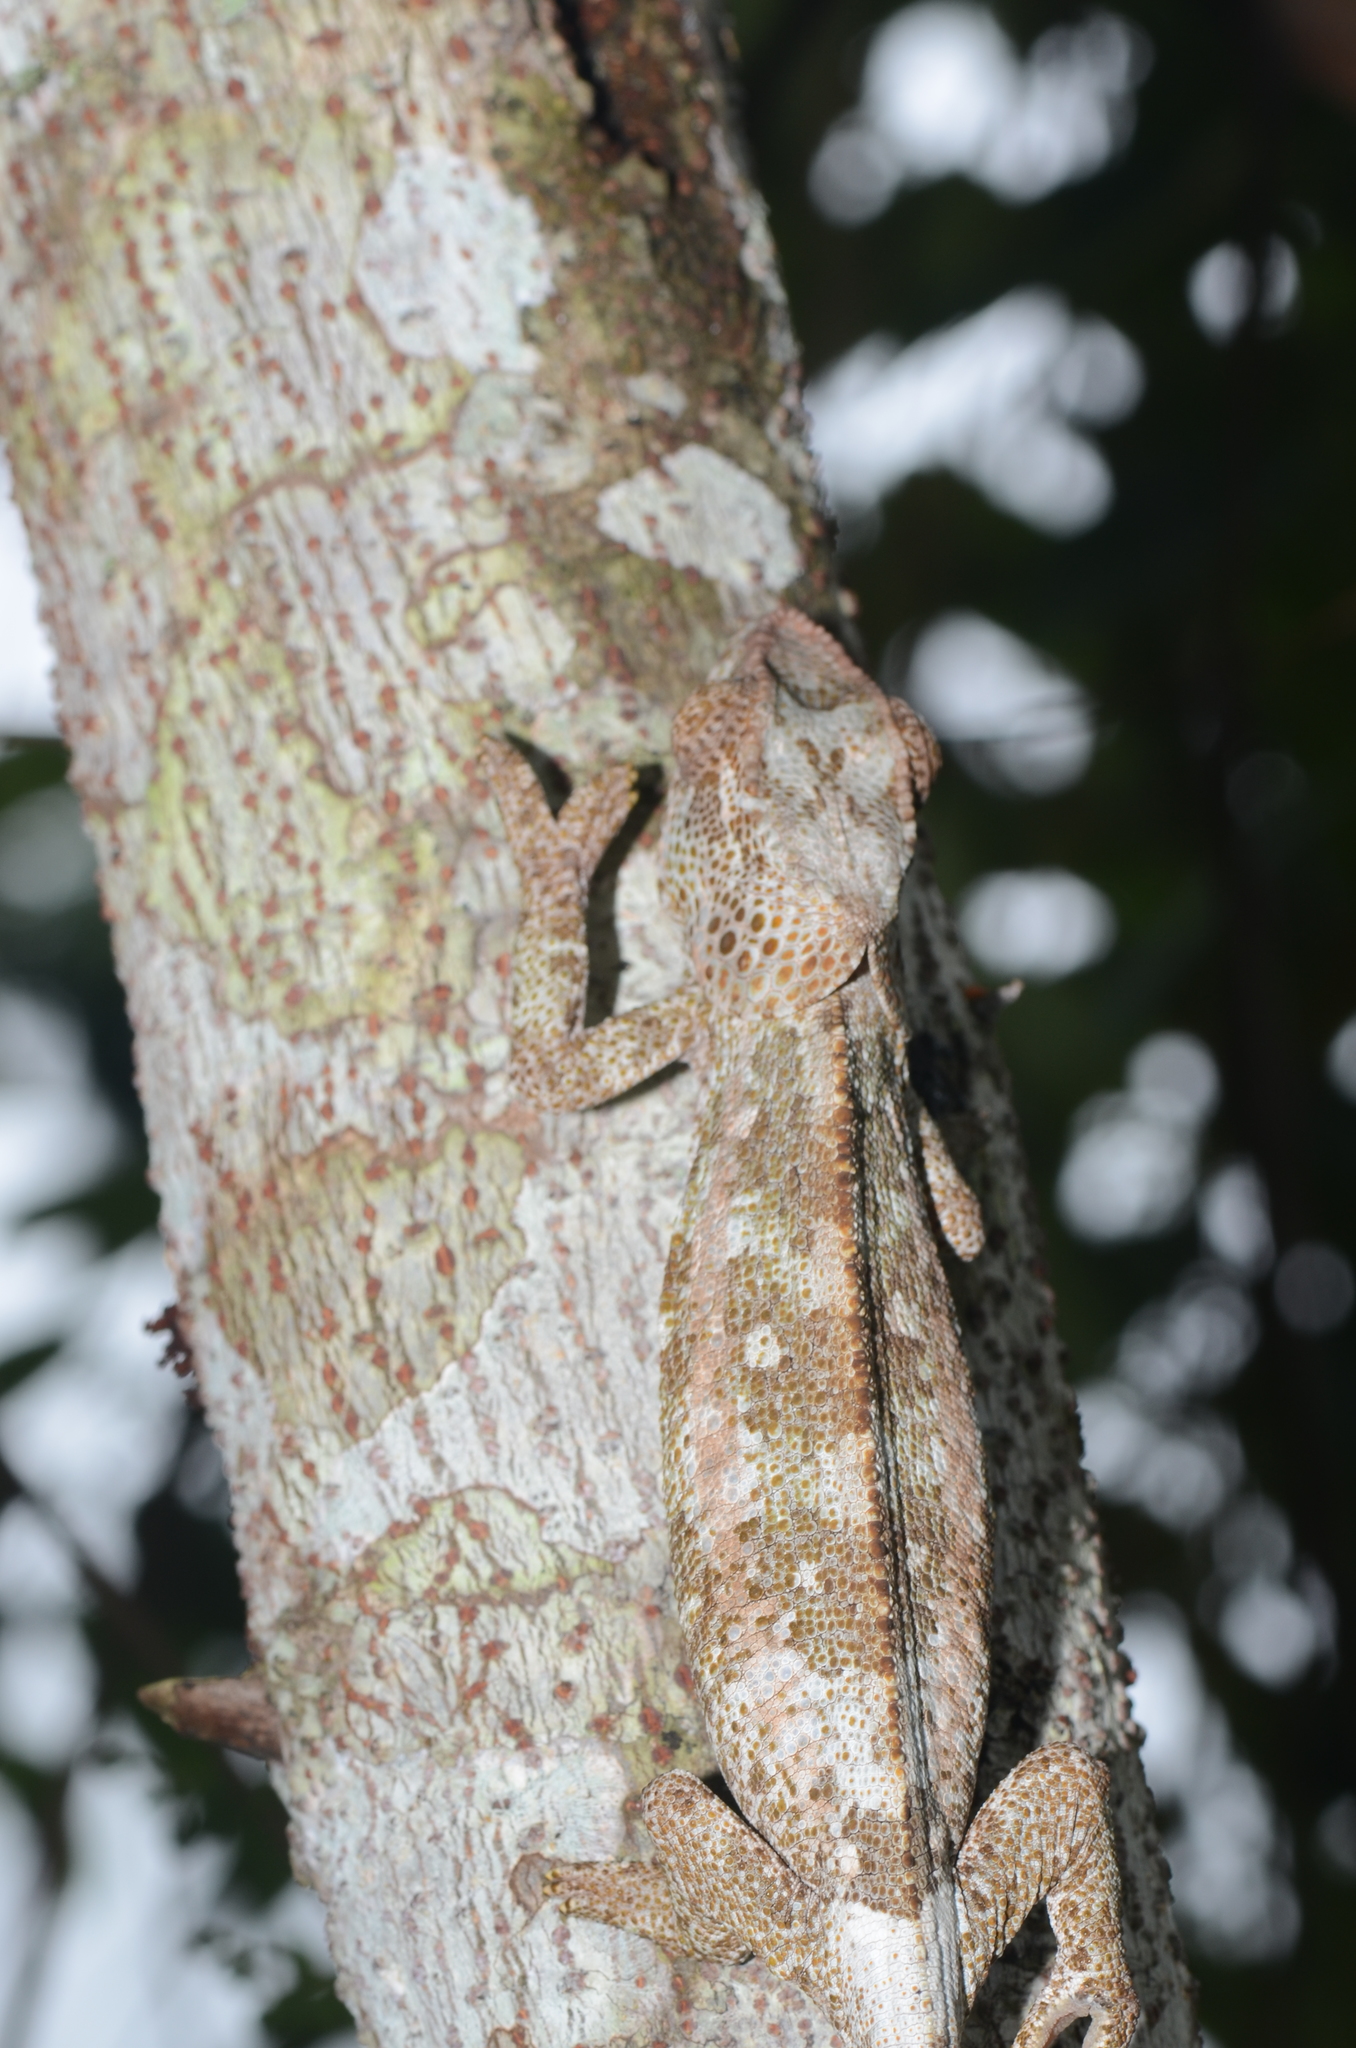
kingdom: Animalia
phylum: Chordata
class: Squamata
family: Chamaeleonidae
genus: Calumma
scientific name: Calumma brevicorne
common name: Short-horned chameleon
